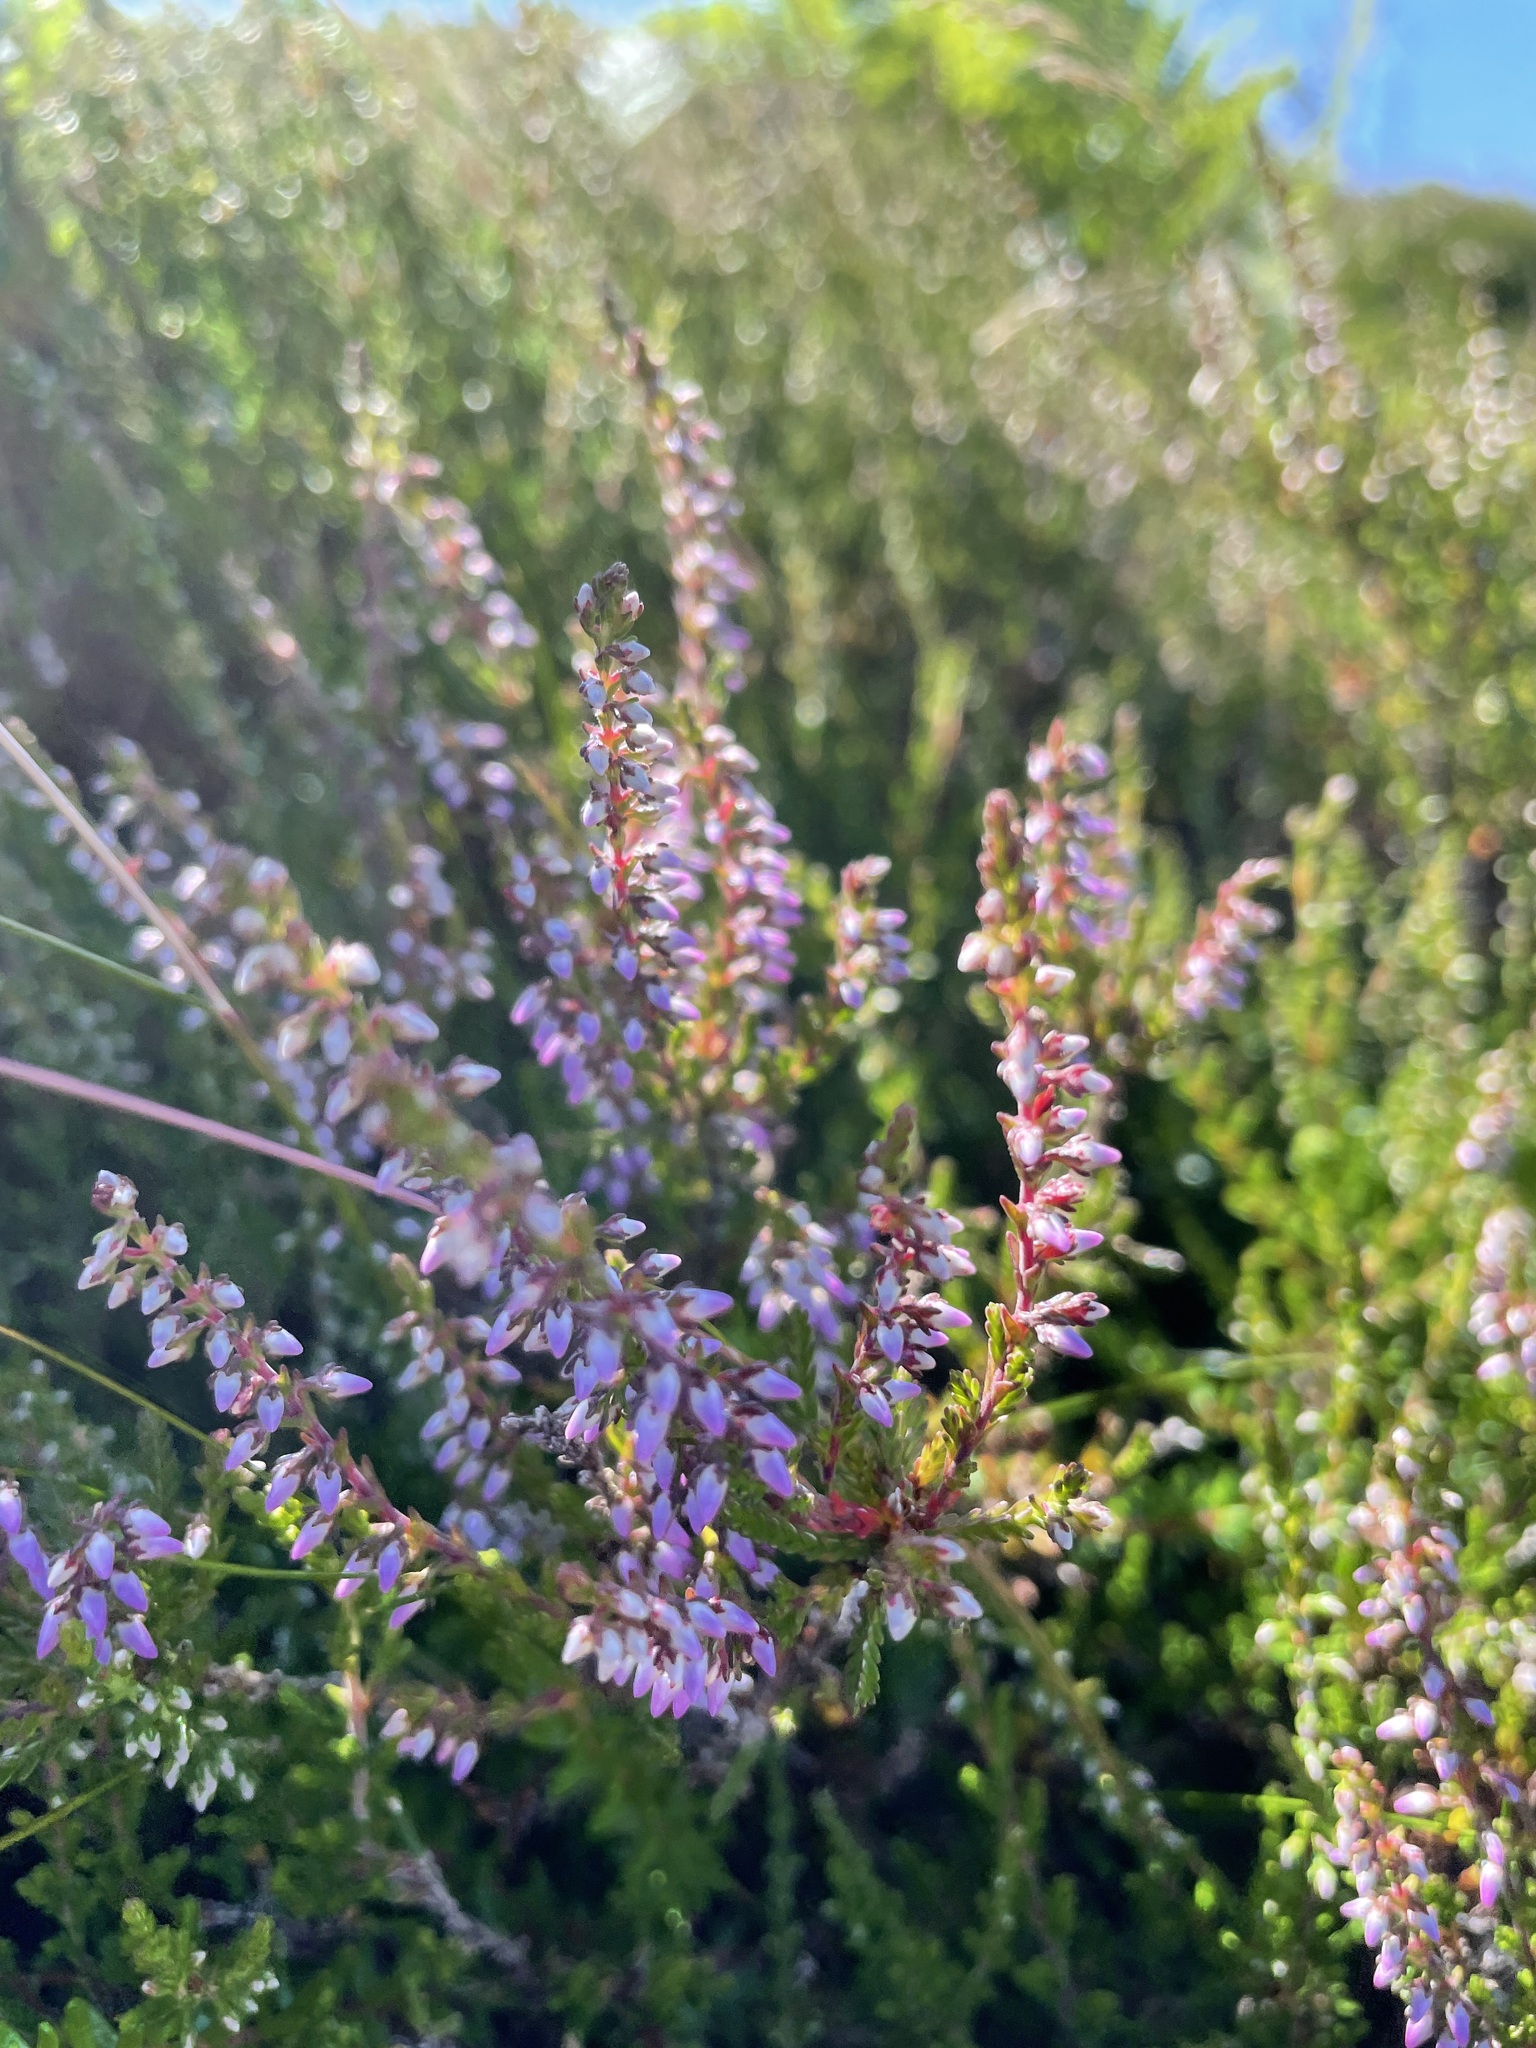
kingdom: Plantae
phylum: Tracheophyta
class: Magnoliopsida
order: Ericales
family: Ericaceae
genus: Calluna
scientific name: Calluna vulgaris
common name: Heather
